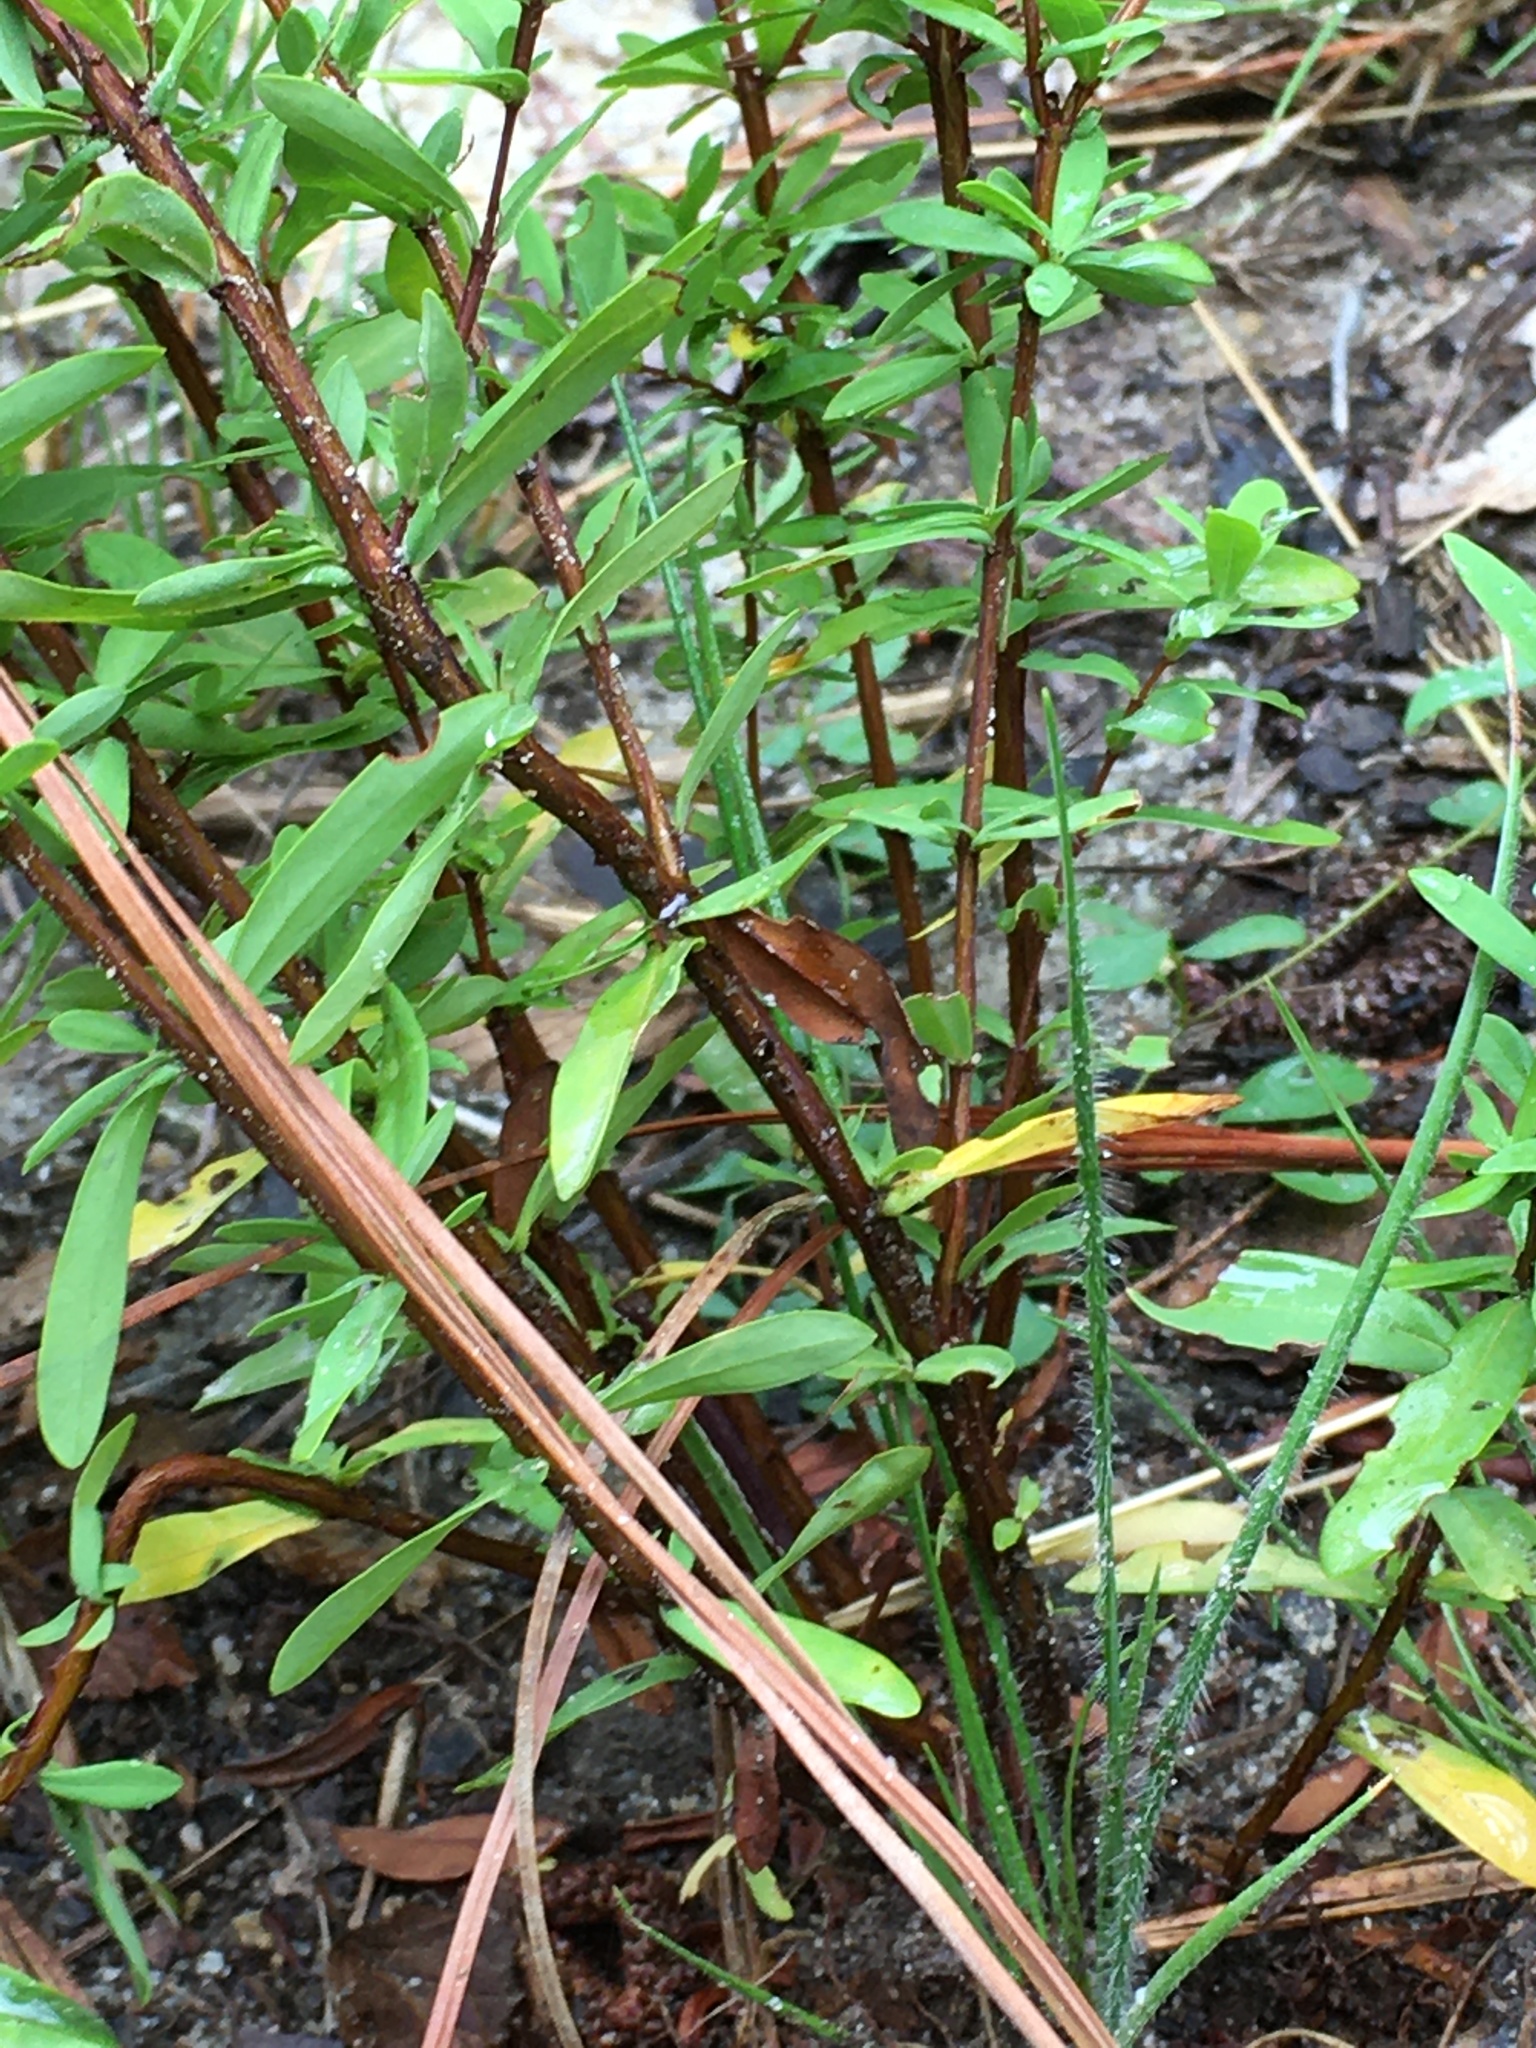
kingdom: Plantae
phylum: Tracheophyta
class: Magnoliopsida
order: Malpighiales
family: Hypericaceae
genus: Hypericum
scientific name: Hypericum hypericoides
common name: St. andrew's cross
